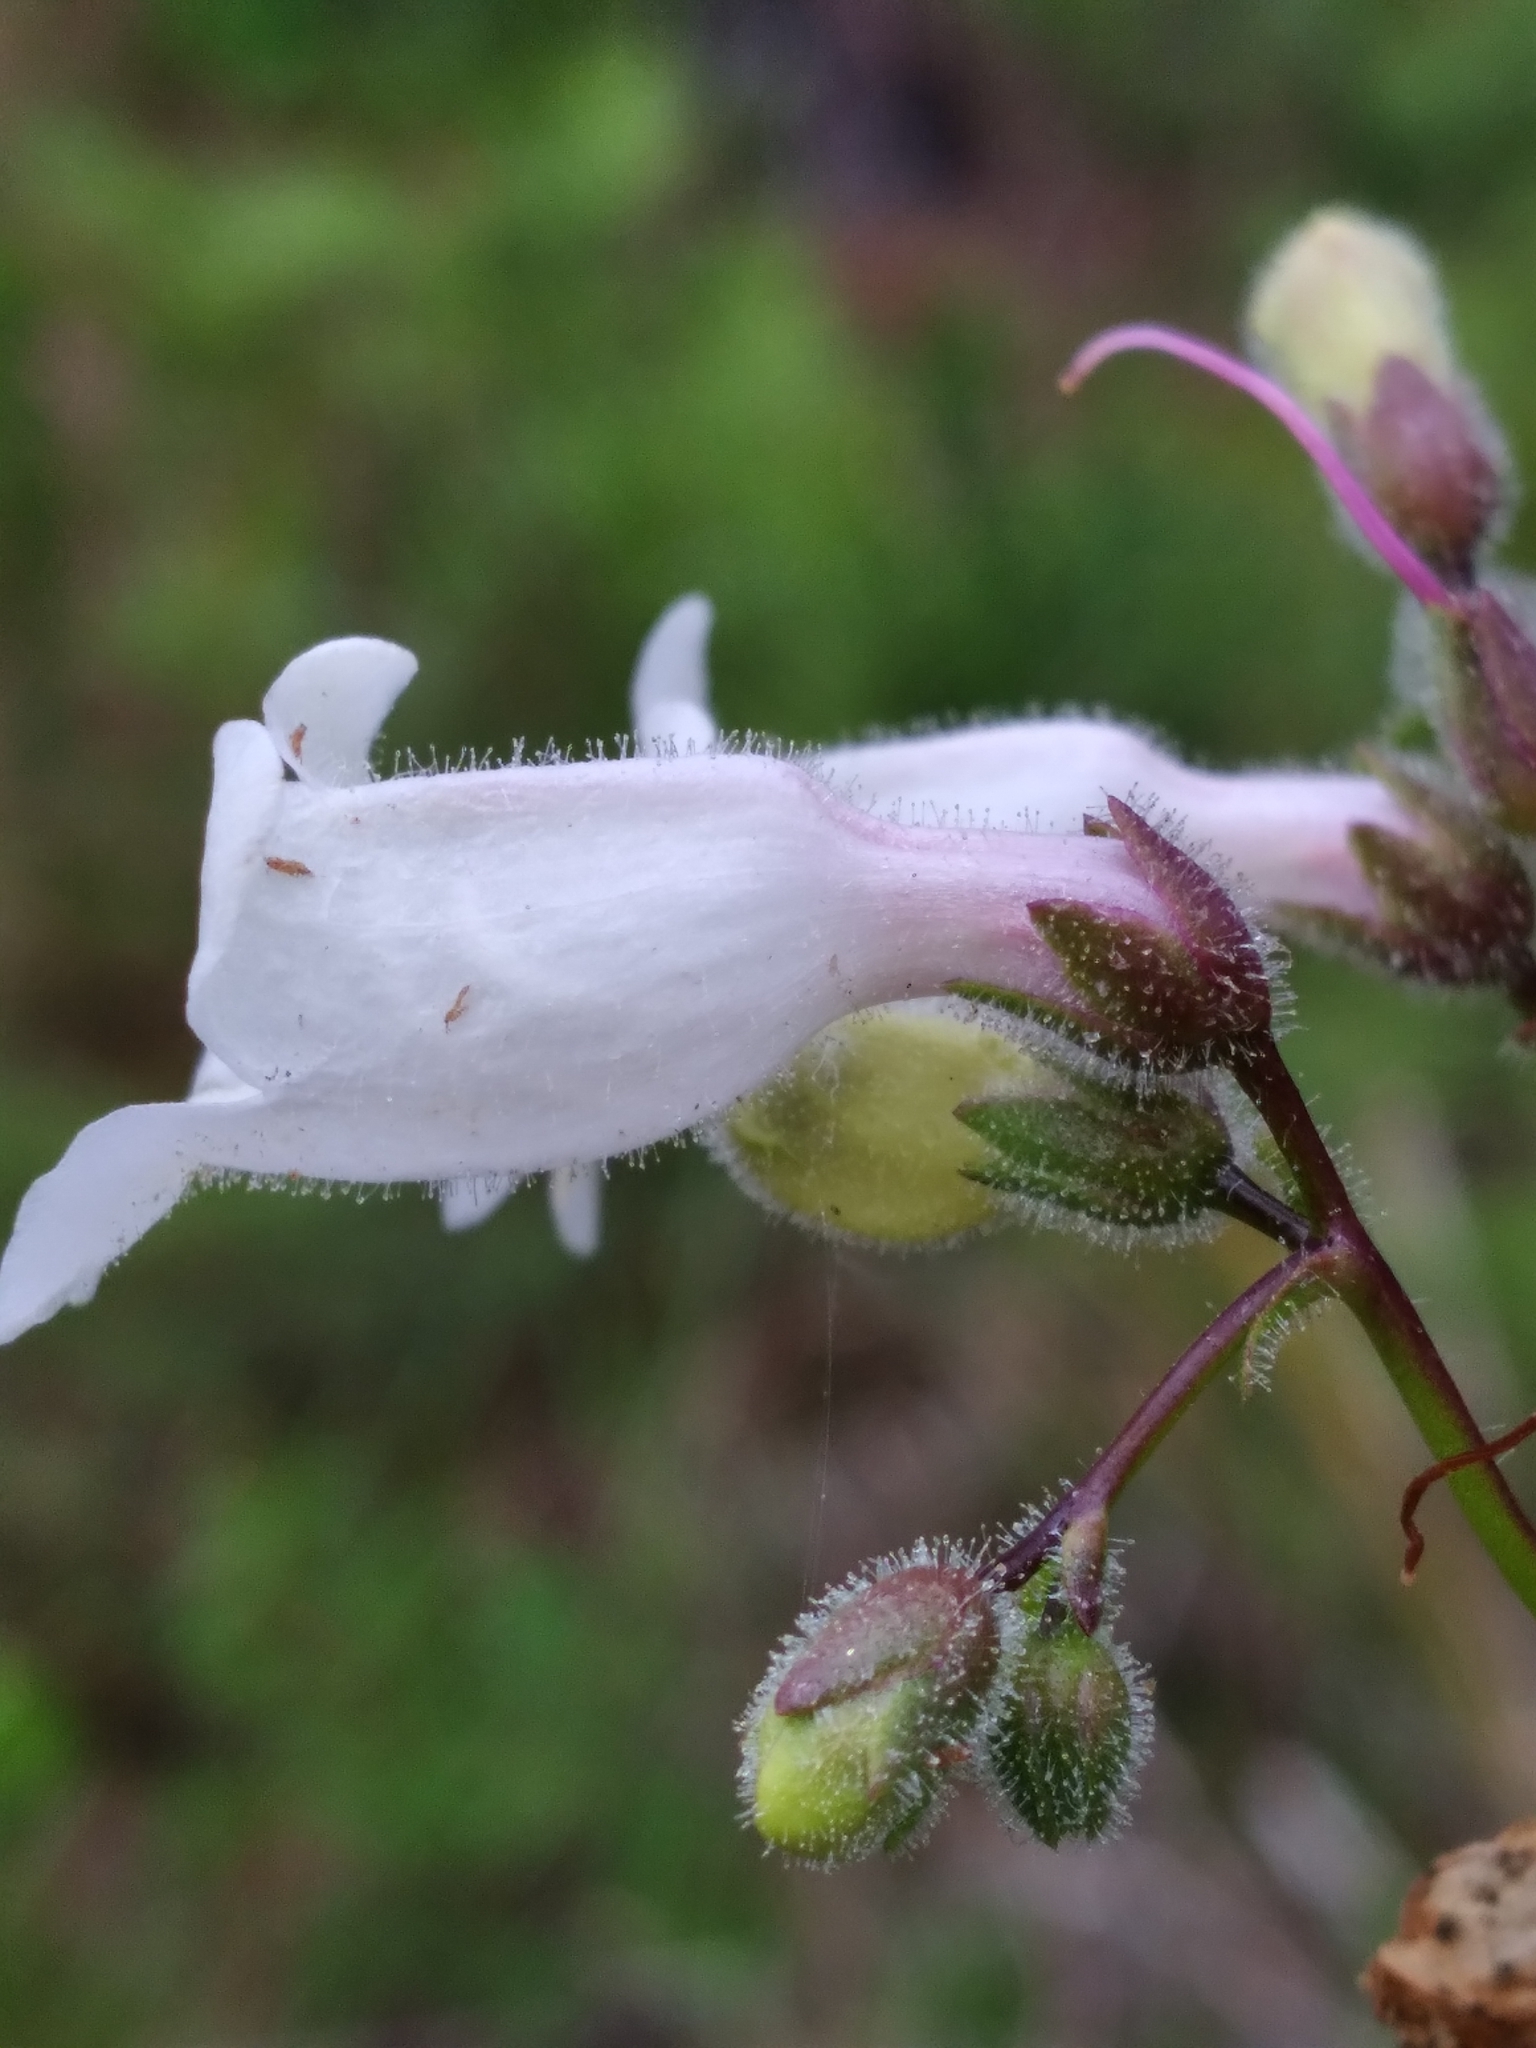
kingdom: Plantae
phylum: Tracheophyta
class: Magnoliopsida
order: Lamiales
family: Plantaginaceae
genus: Penstemon
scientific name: Penstemon multiflorus
